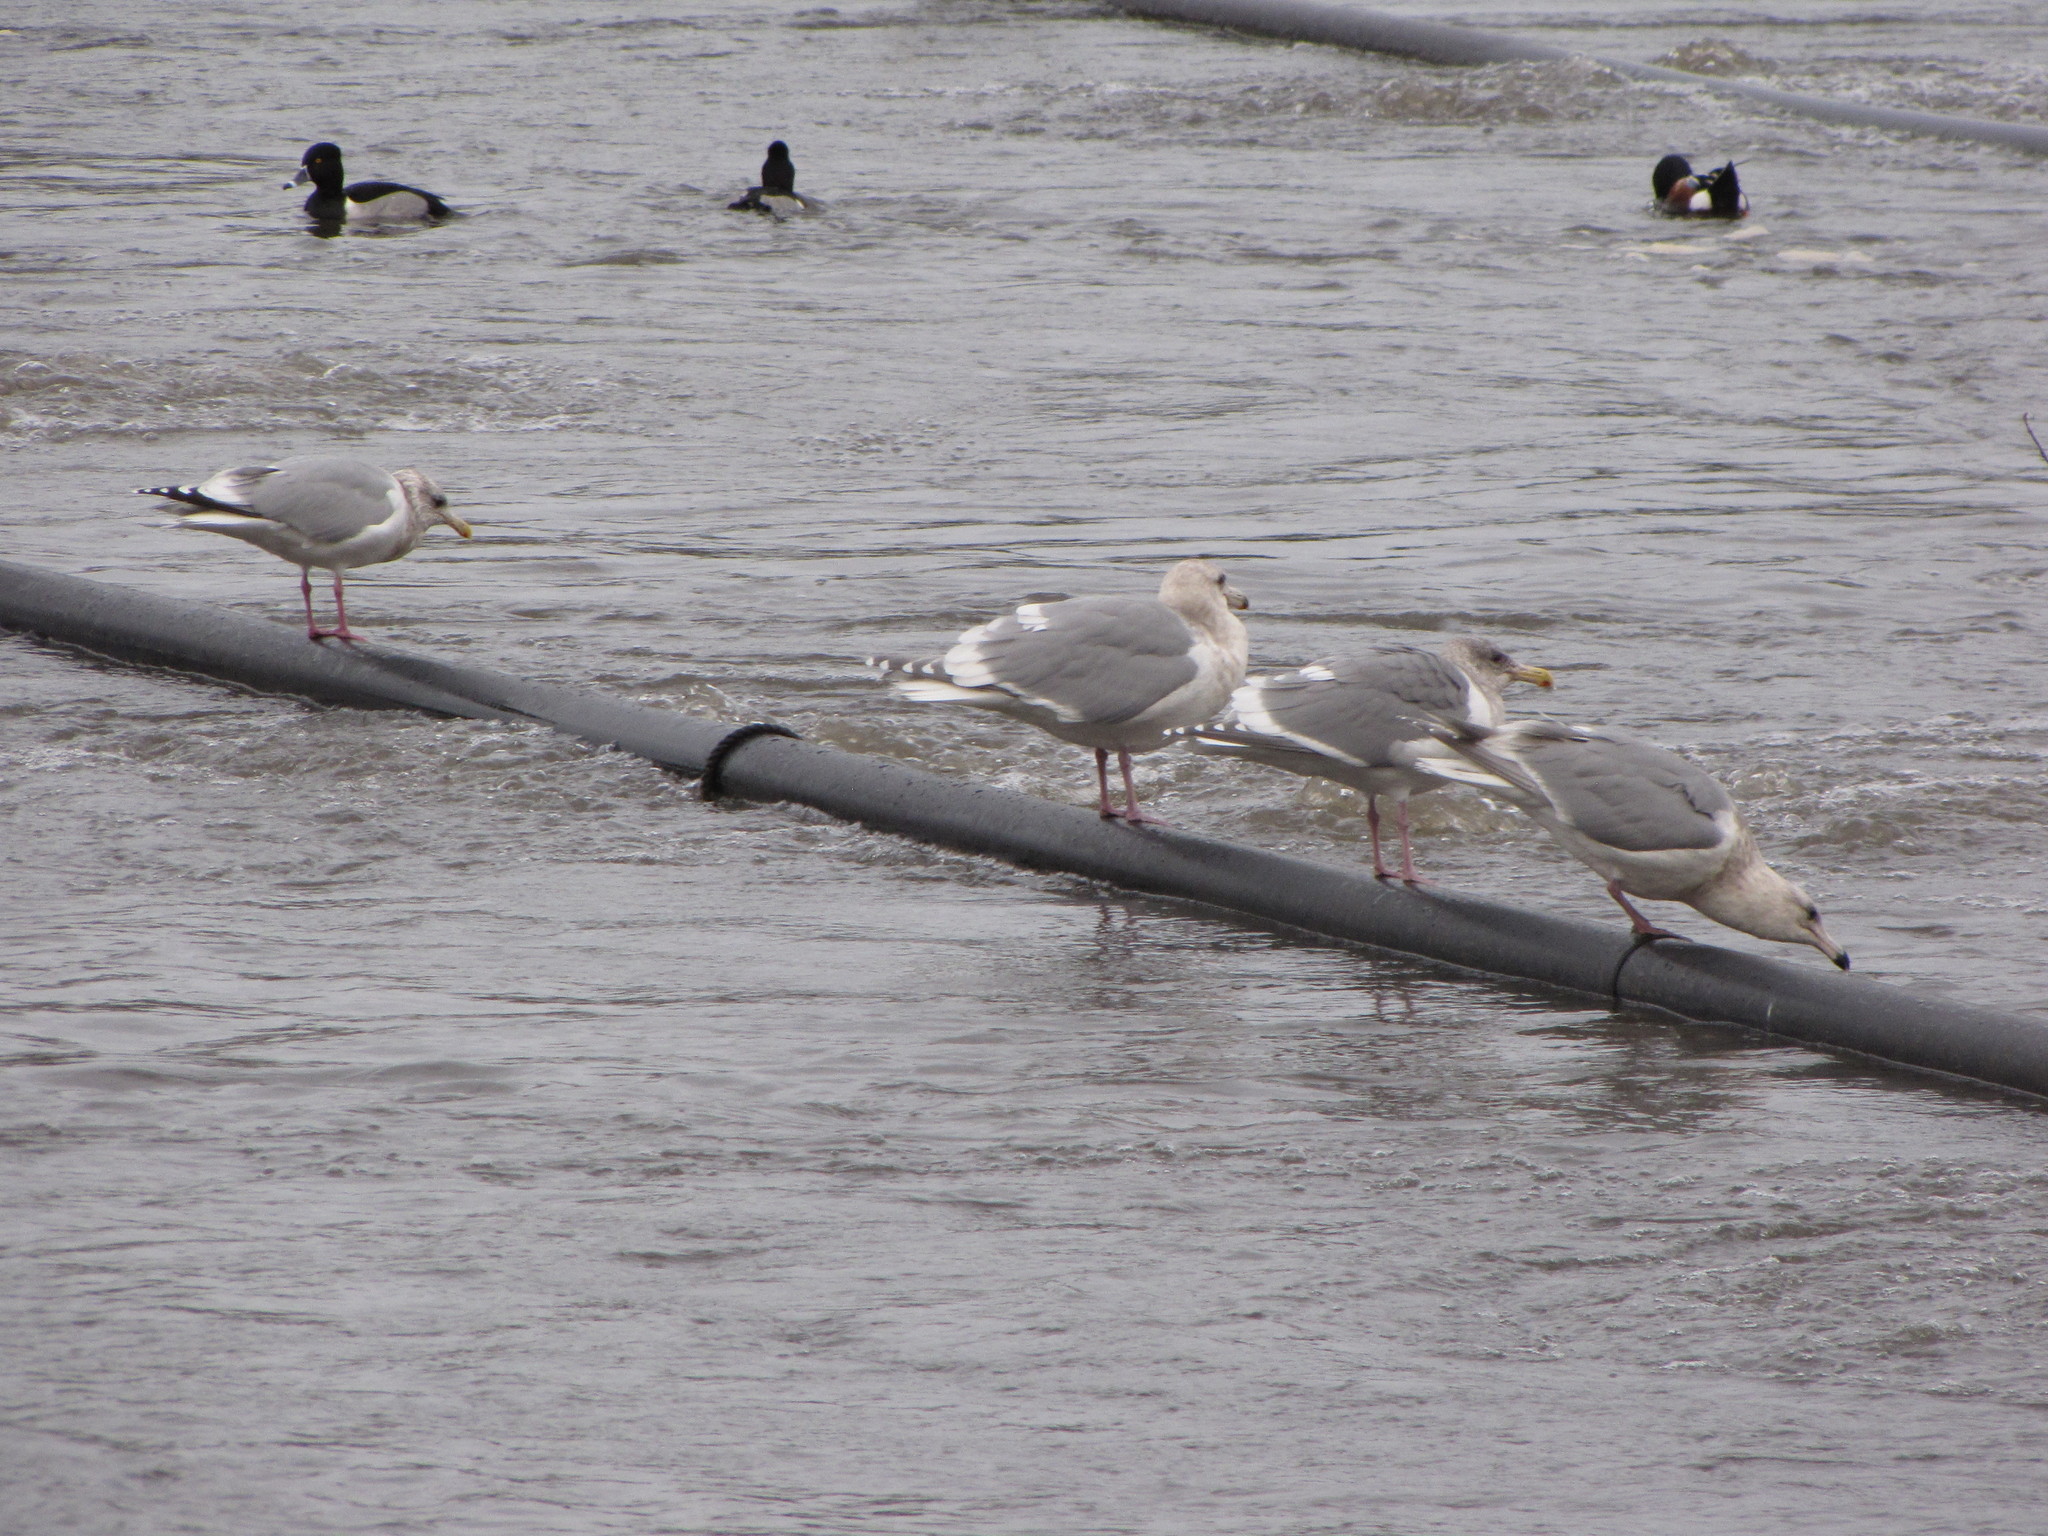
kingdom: Animalia
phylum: Chordata
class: Aves
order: Charadriiformes
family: Laridae
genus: Larus
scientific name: Larus glaucescens
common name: Glaucous-winged gull
